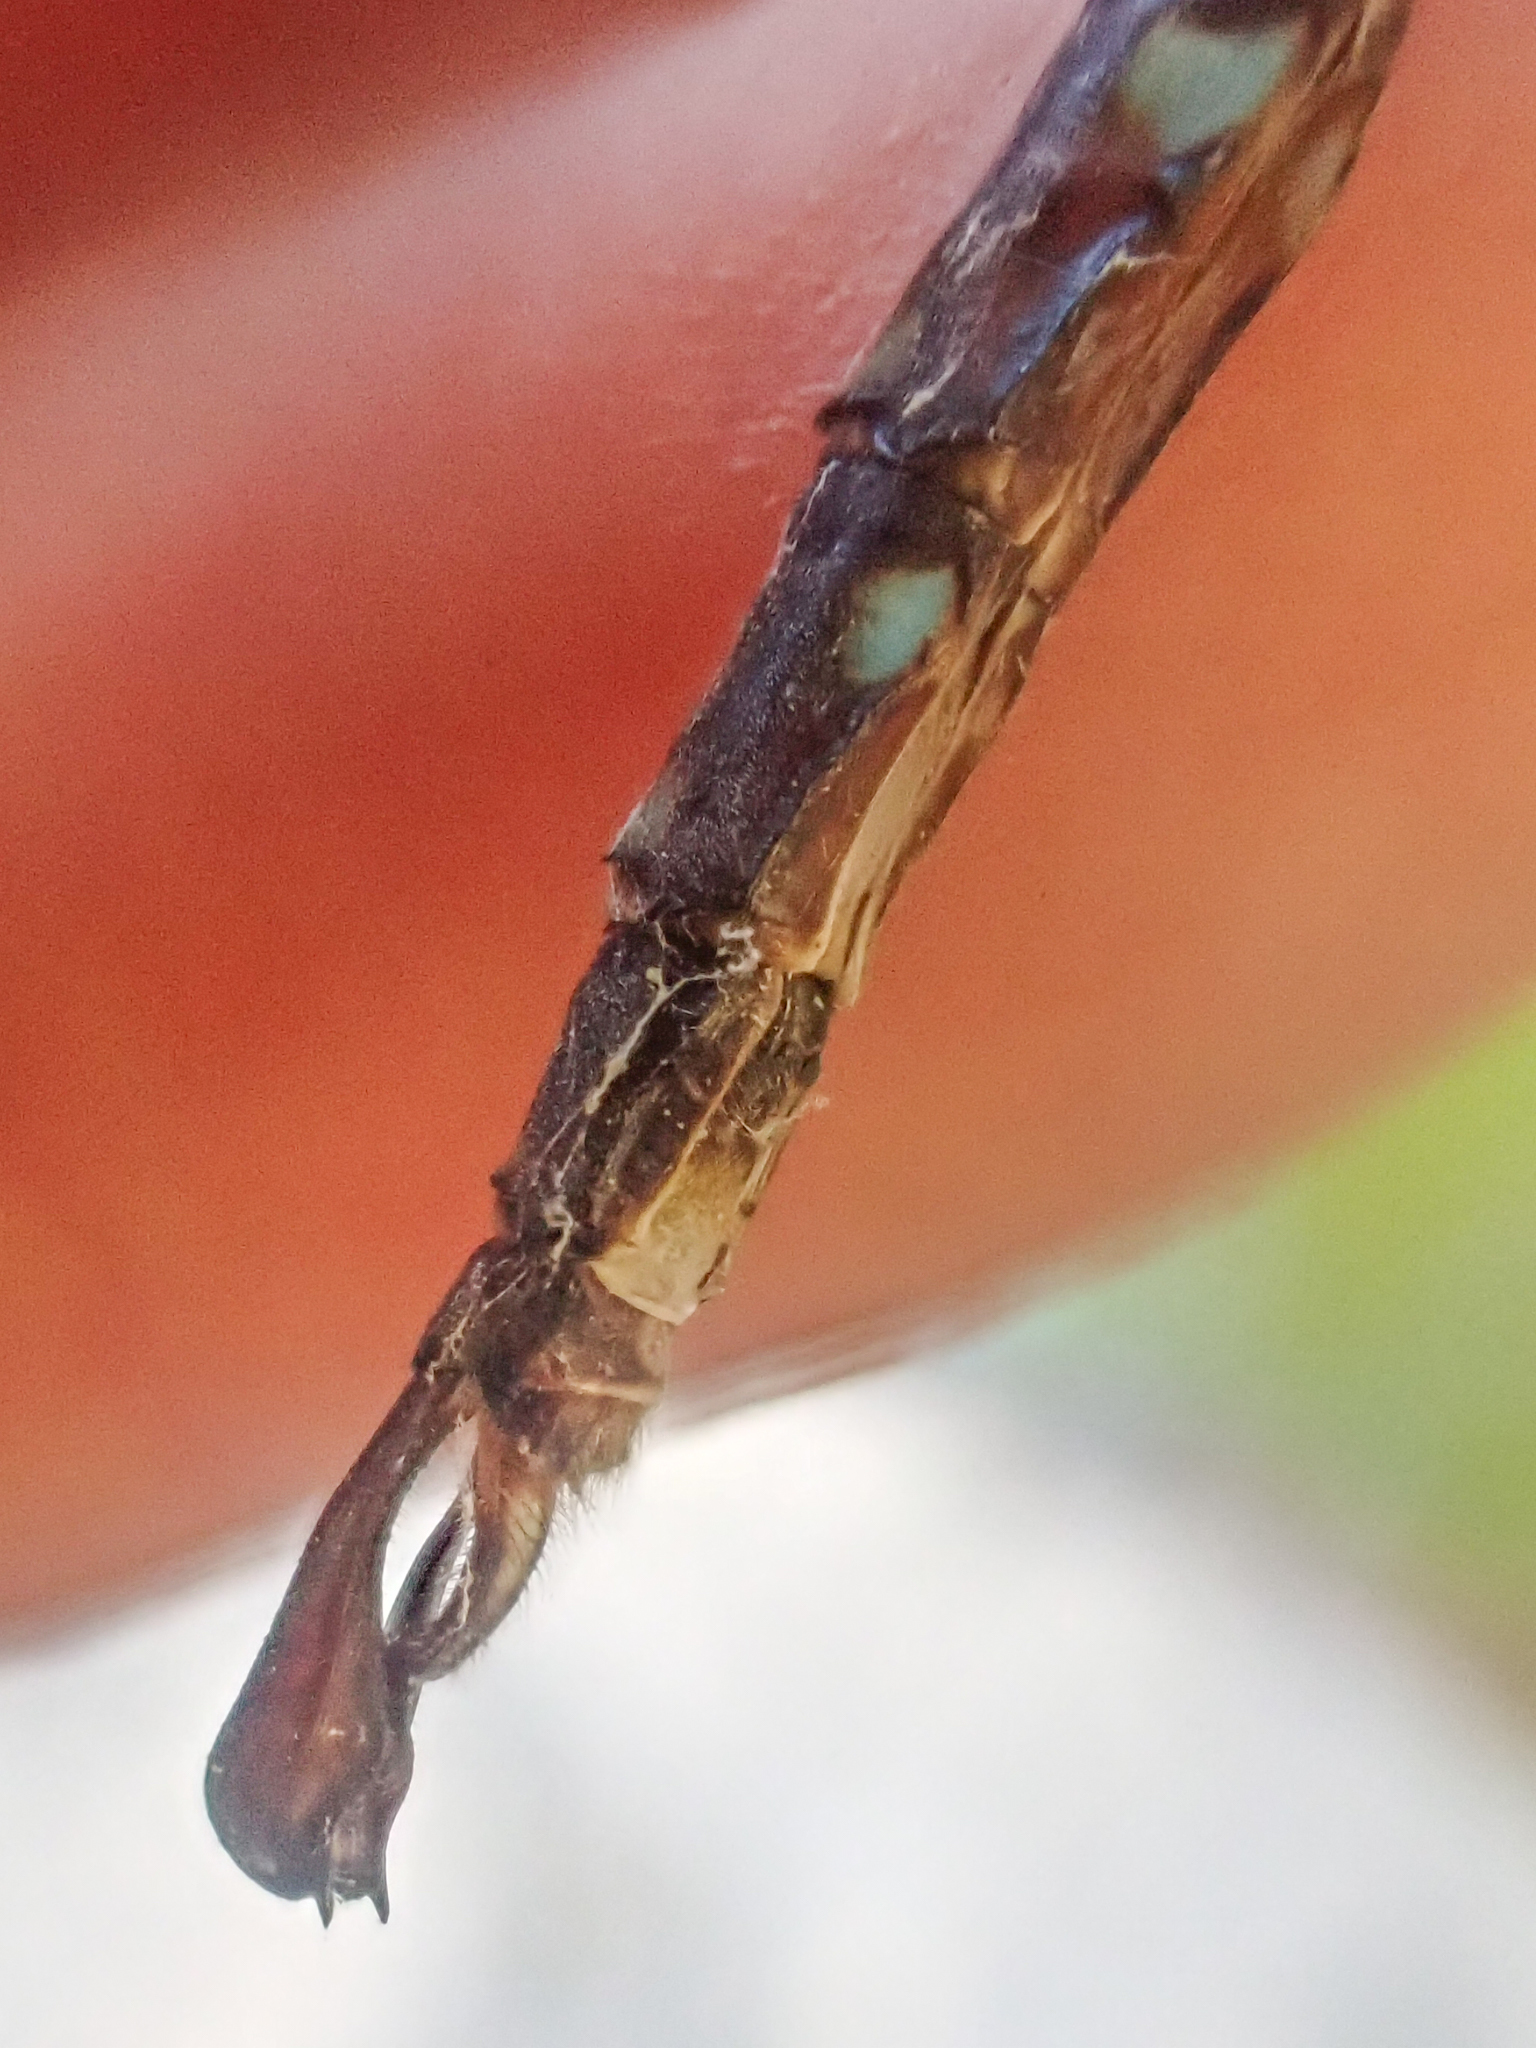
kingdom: Animalia
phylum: Arthropoda
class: Insecta
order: Odonata
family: Aeshnidae
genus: Aeshna
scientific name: Aeshna umbrosa
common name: Shadow darner
